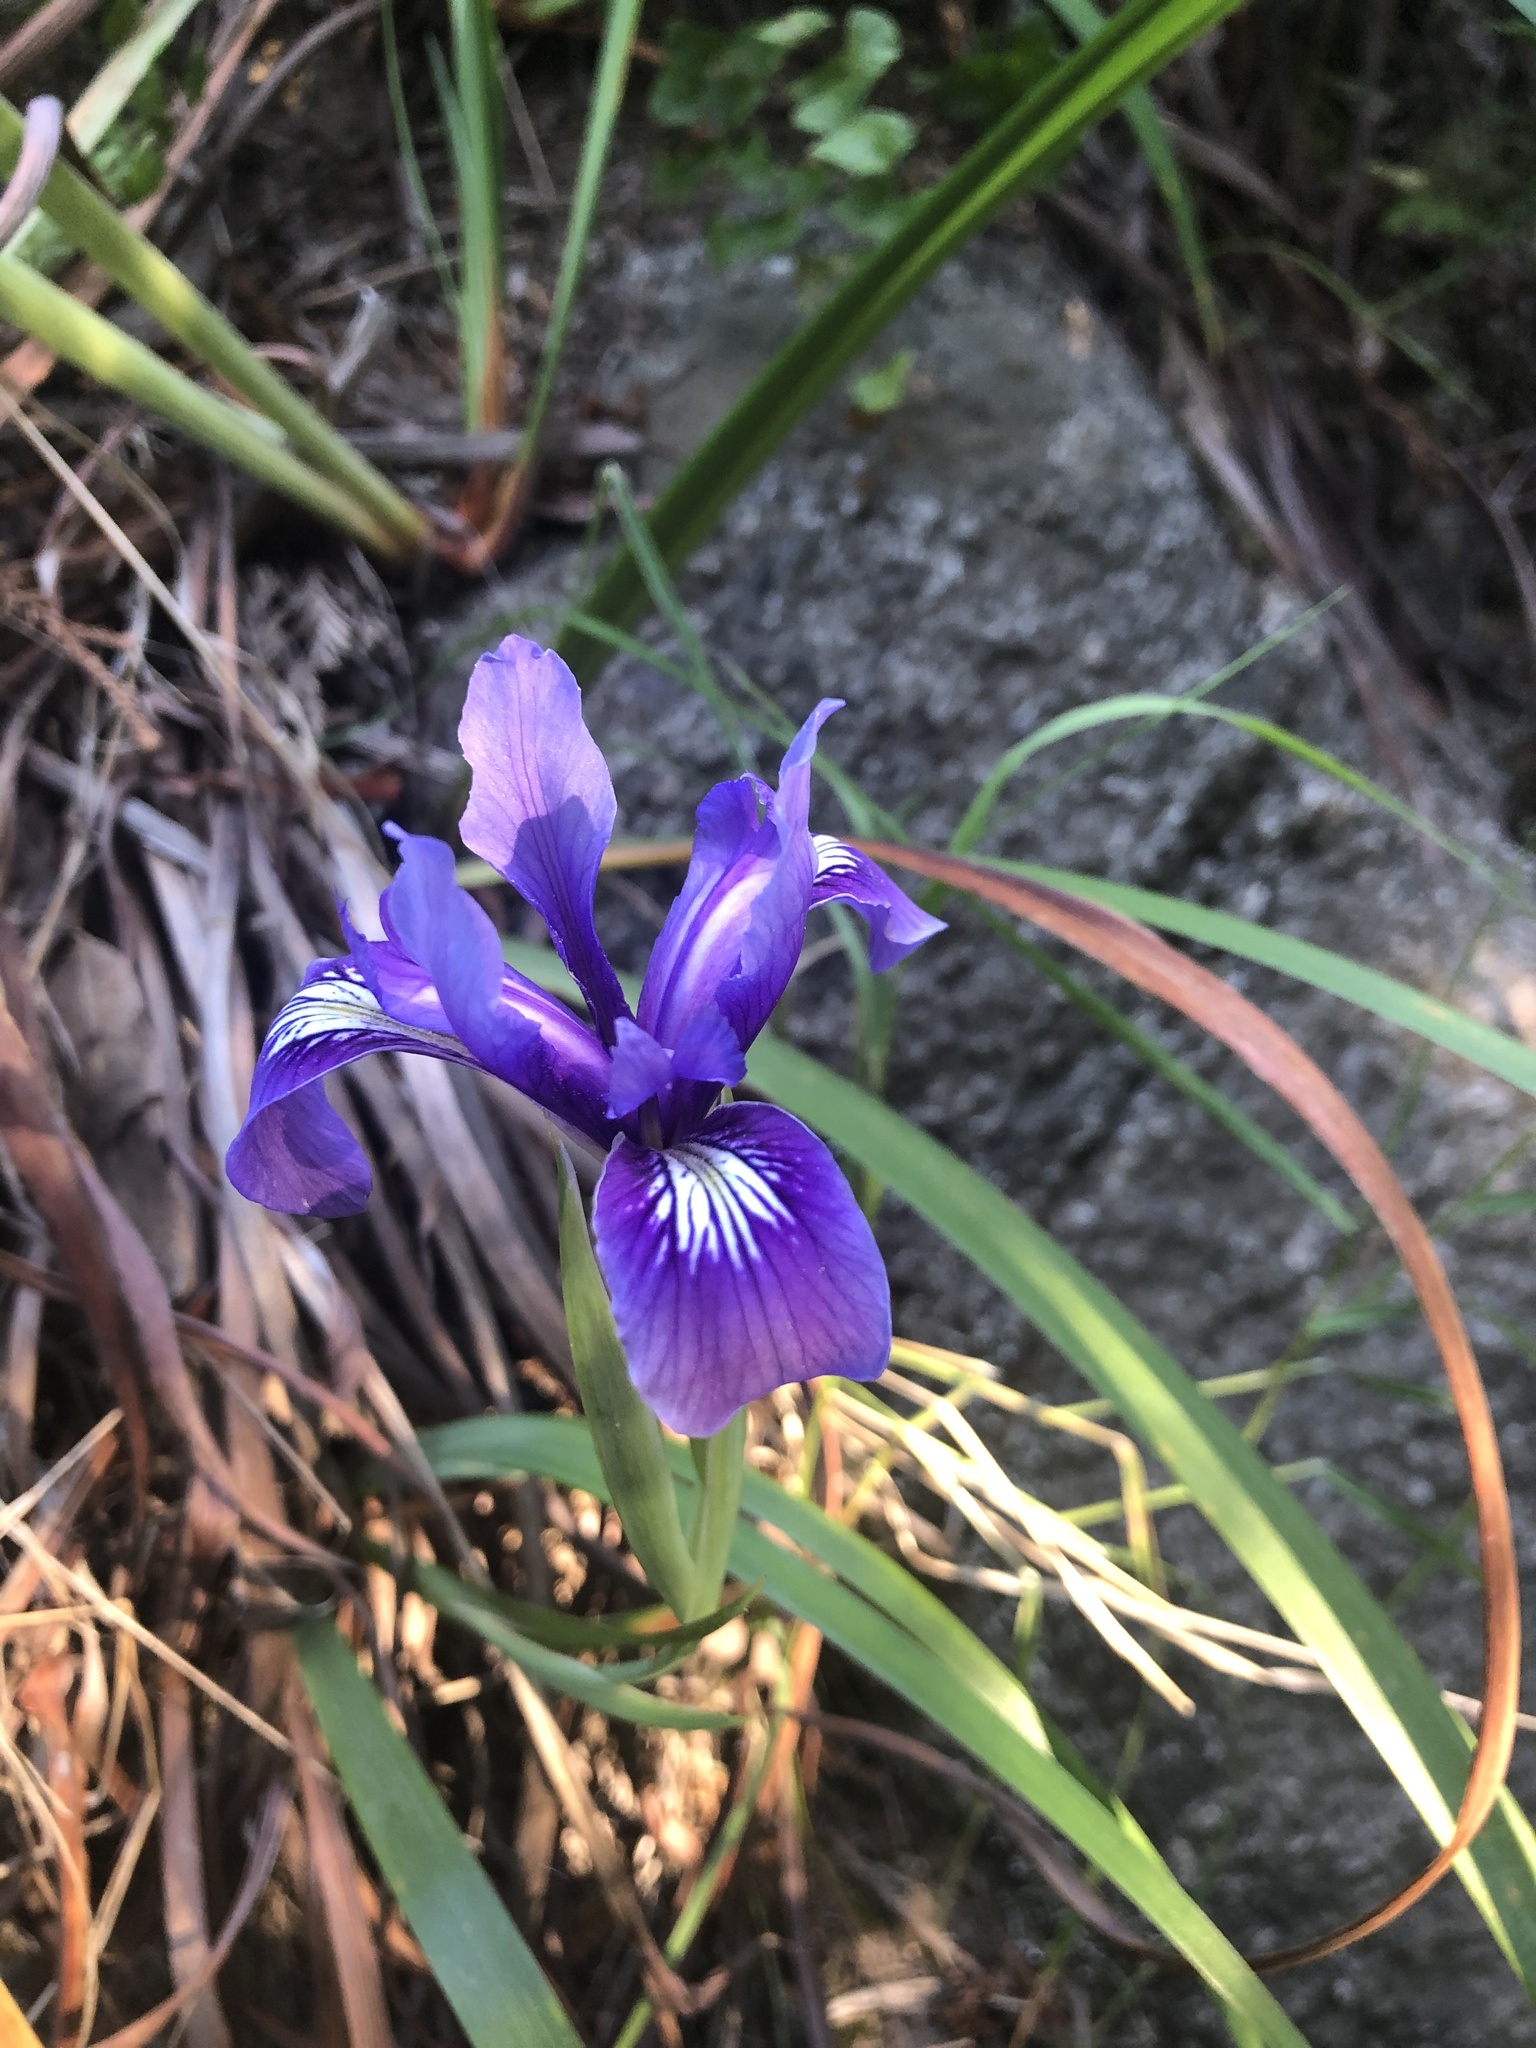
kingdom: Plantae
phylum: Tracheophyta
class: Liliopsida
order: Asparagales
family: Iridaceae
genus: Iris
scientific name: Iris douglasiana
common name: Marin iris
